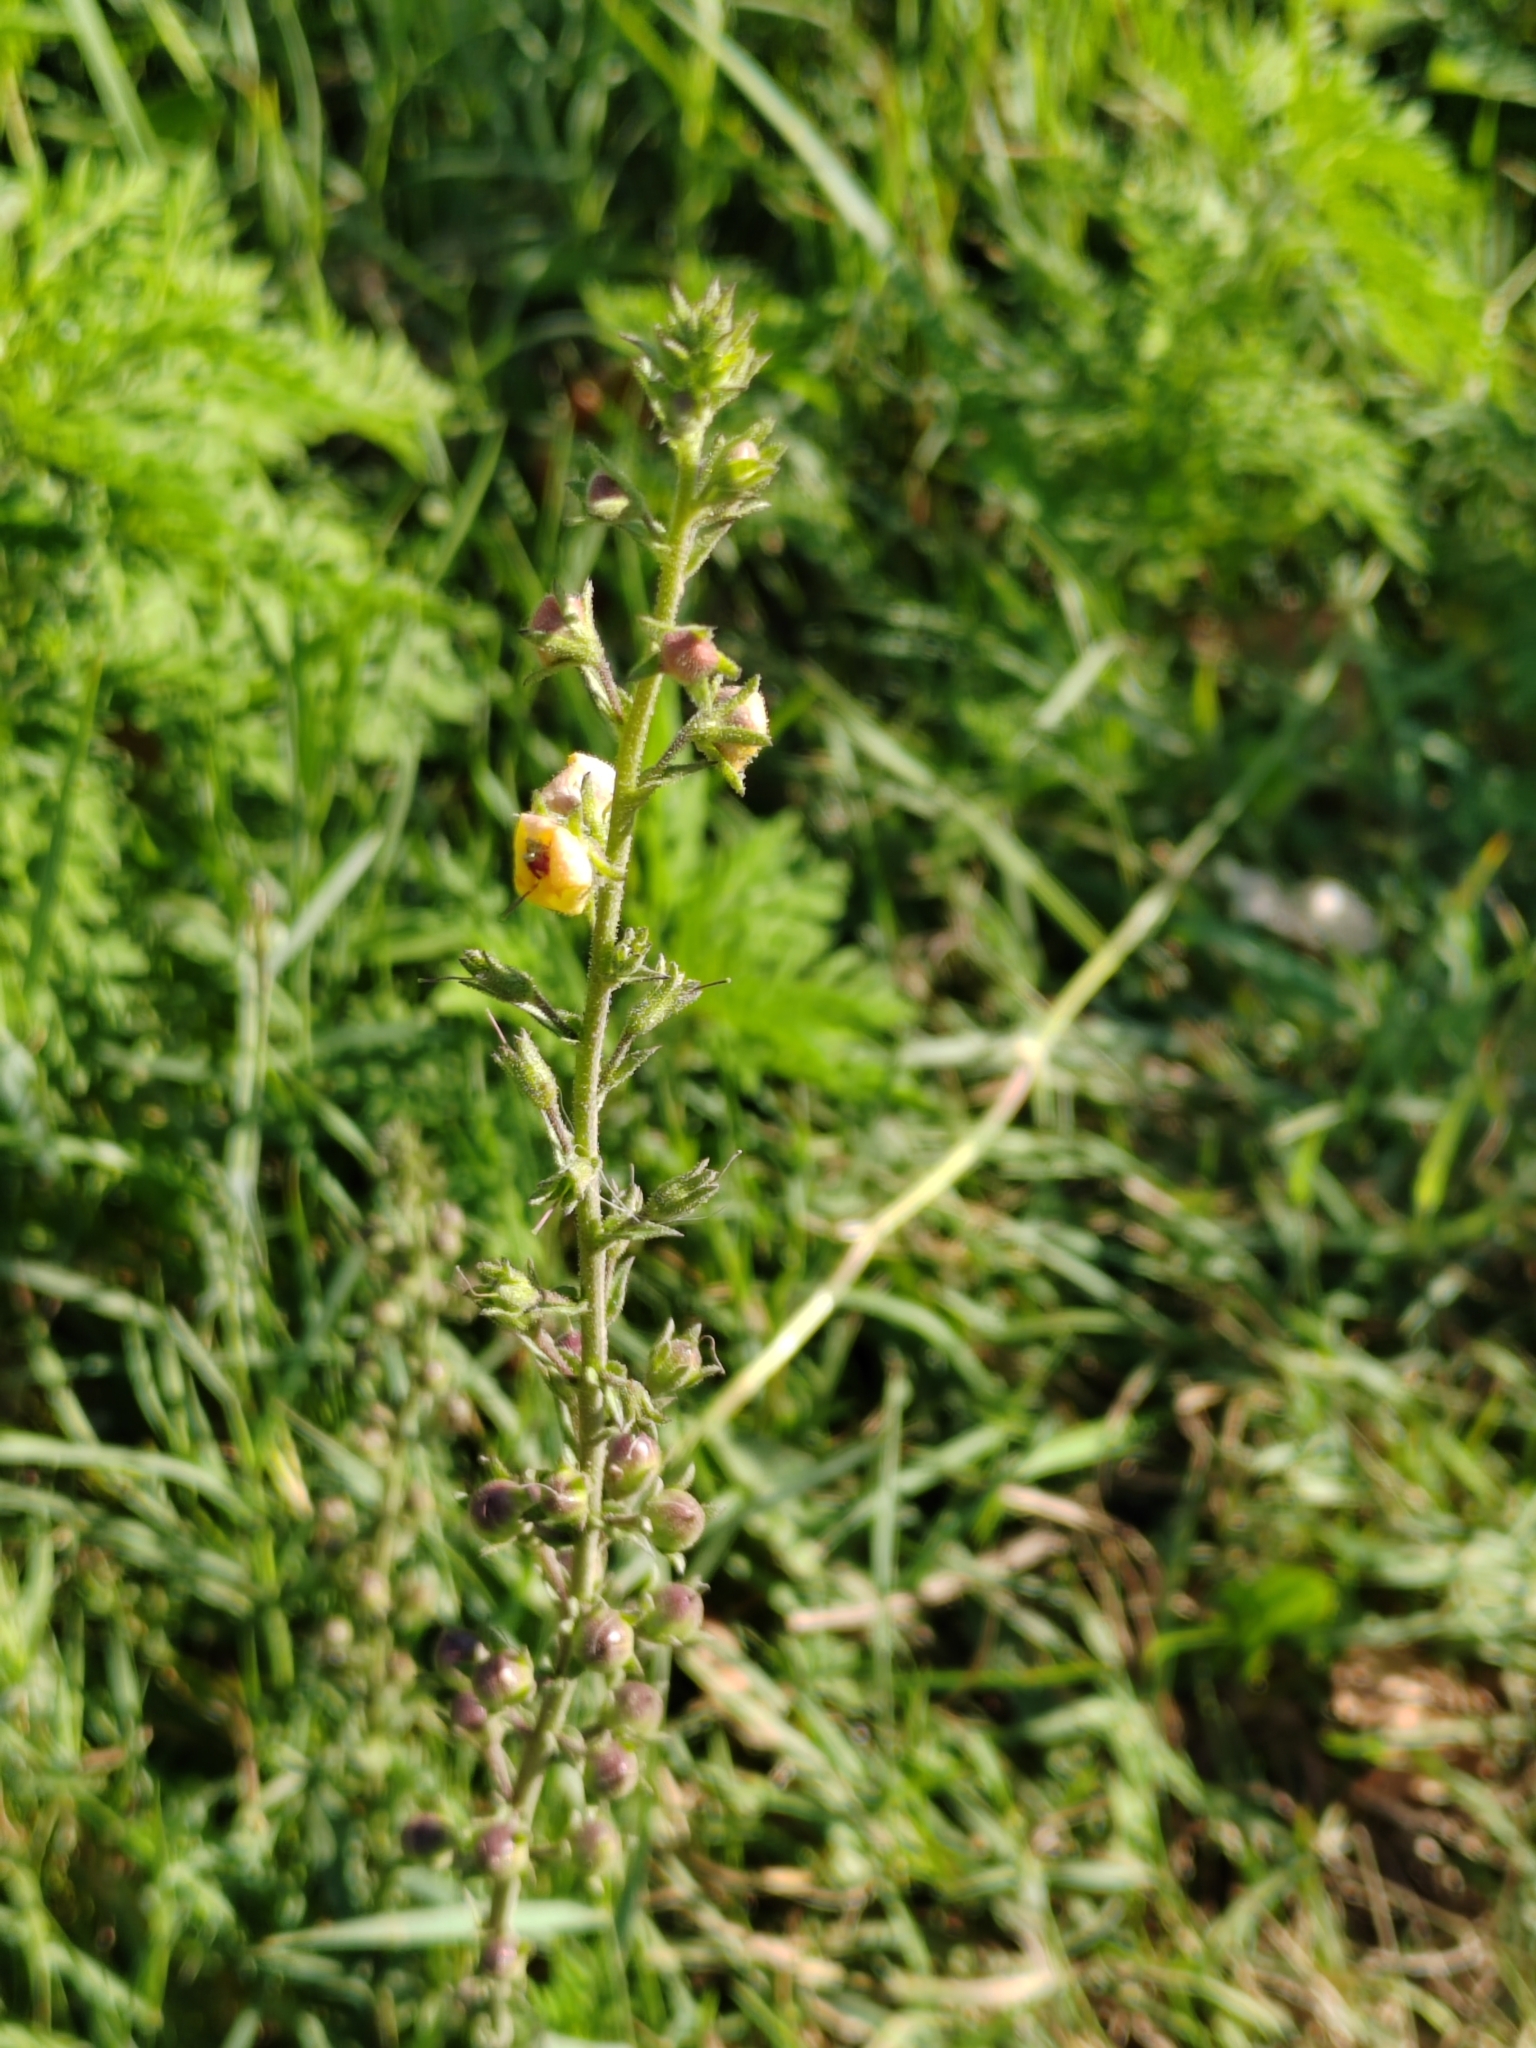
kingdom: Plantae
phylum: Tracheophyta
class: Magnoliopsida
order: Lamiales
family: Scrophulariaceae
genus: Verbascum
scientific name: Verbascum blattaria
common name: Moth mullein
